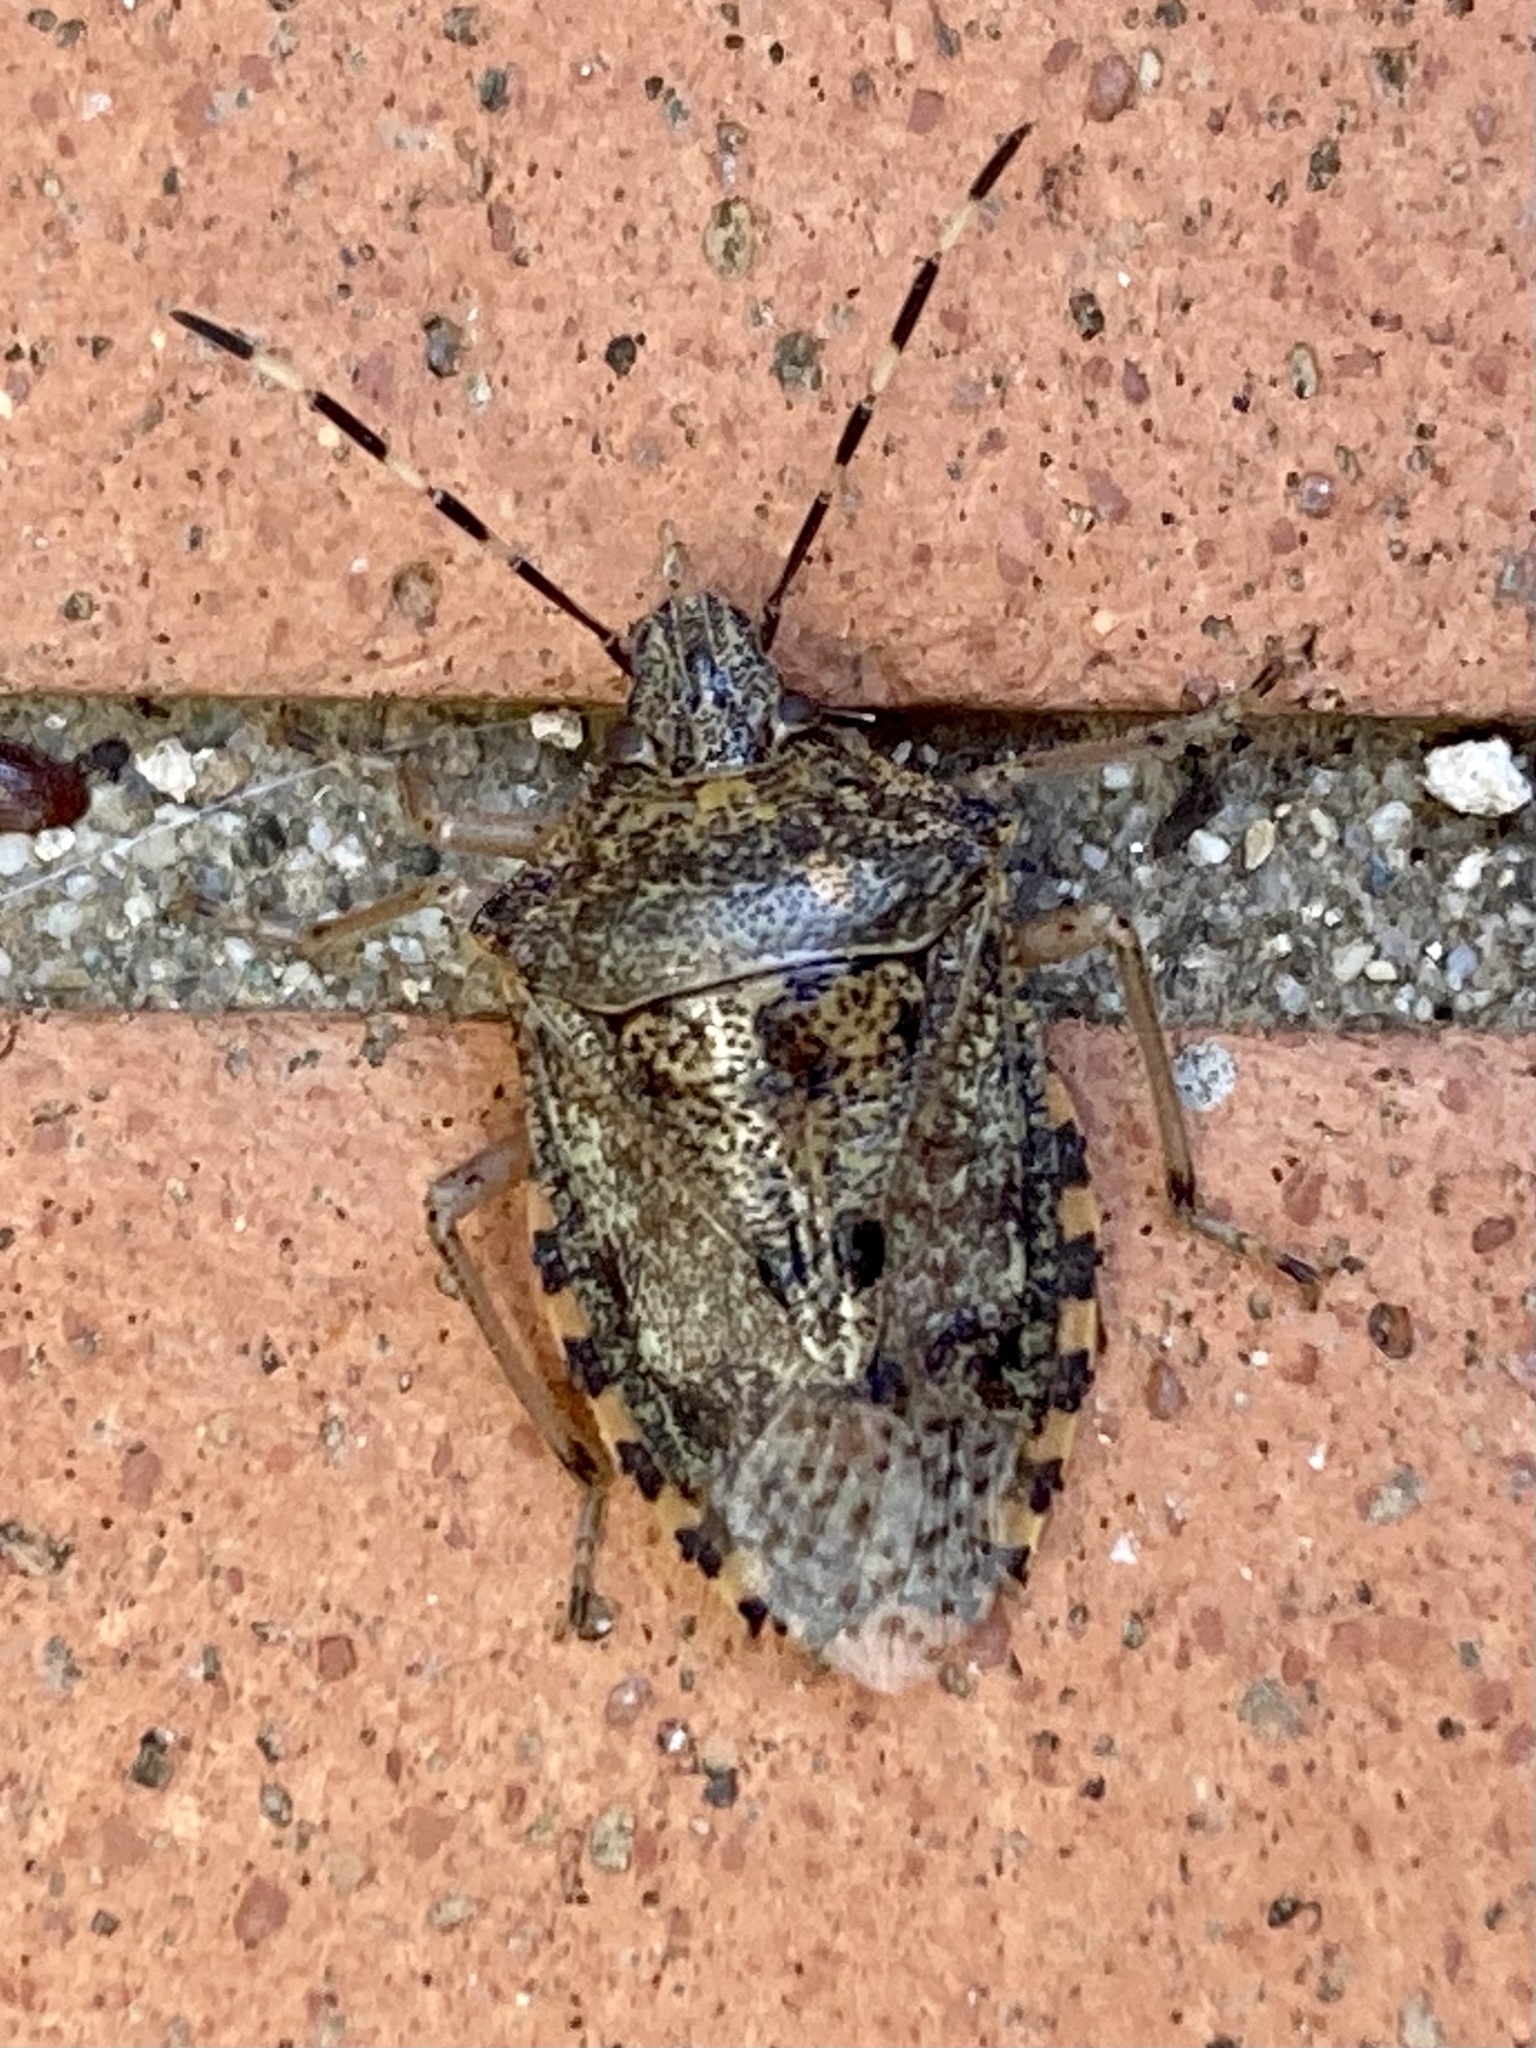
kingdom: Animalia
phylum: Arthropoda
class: Insecta
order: Hemiptera
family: Pentatomidae
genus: Rhaphigaster
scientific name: Rhaphigaster nebulosa
